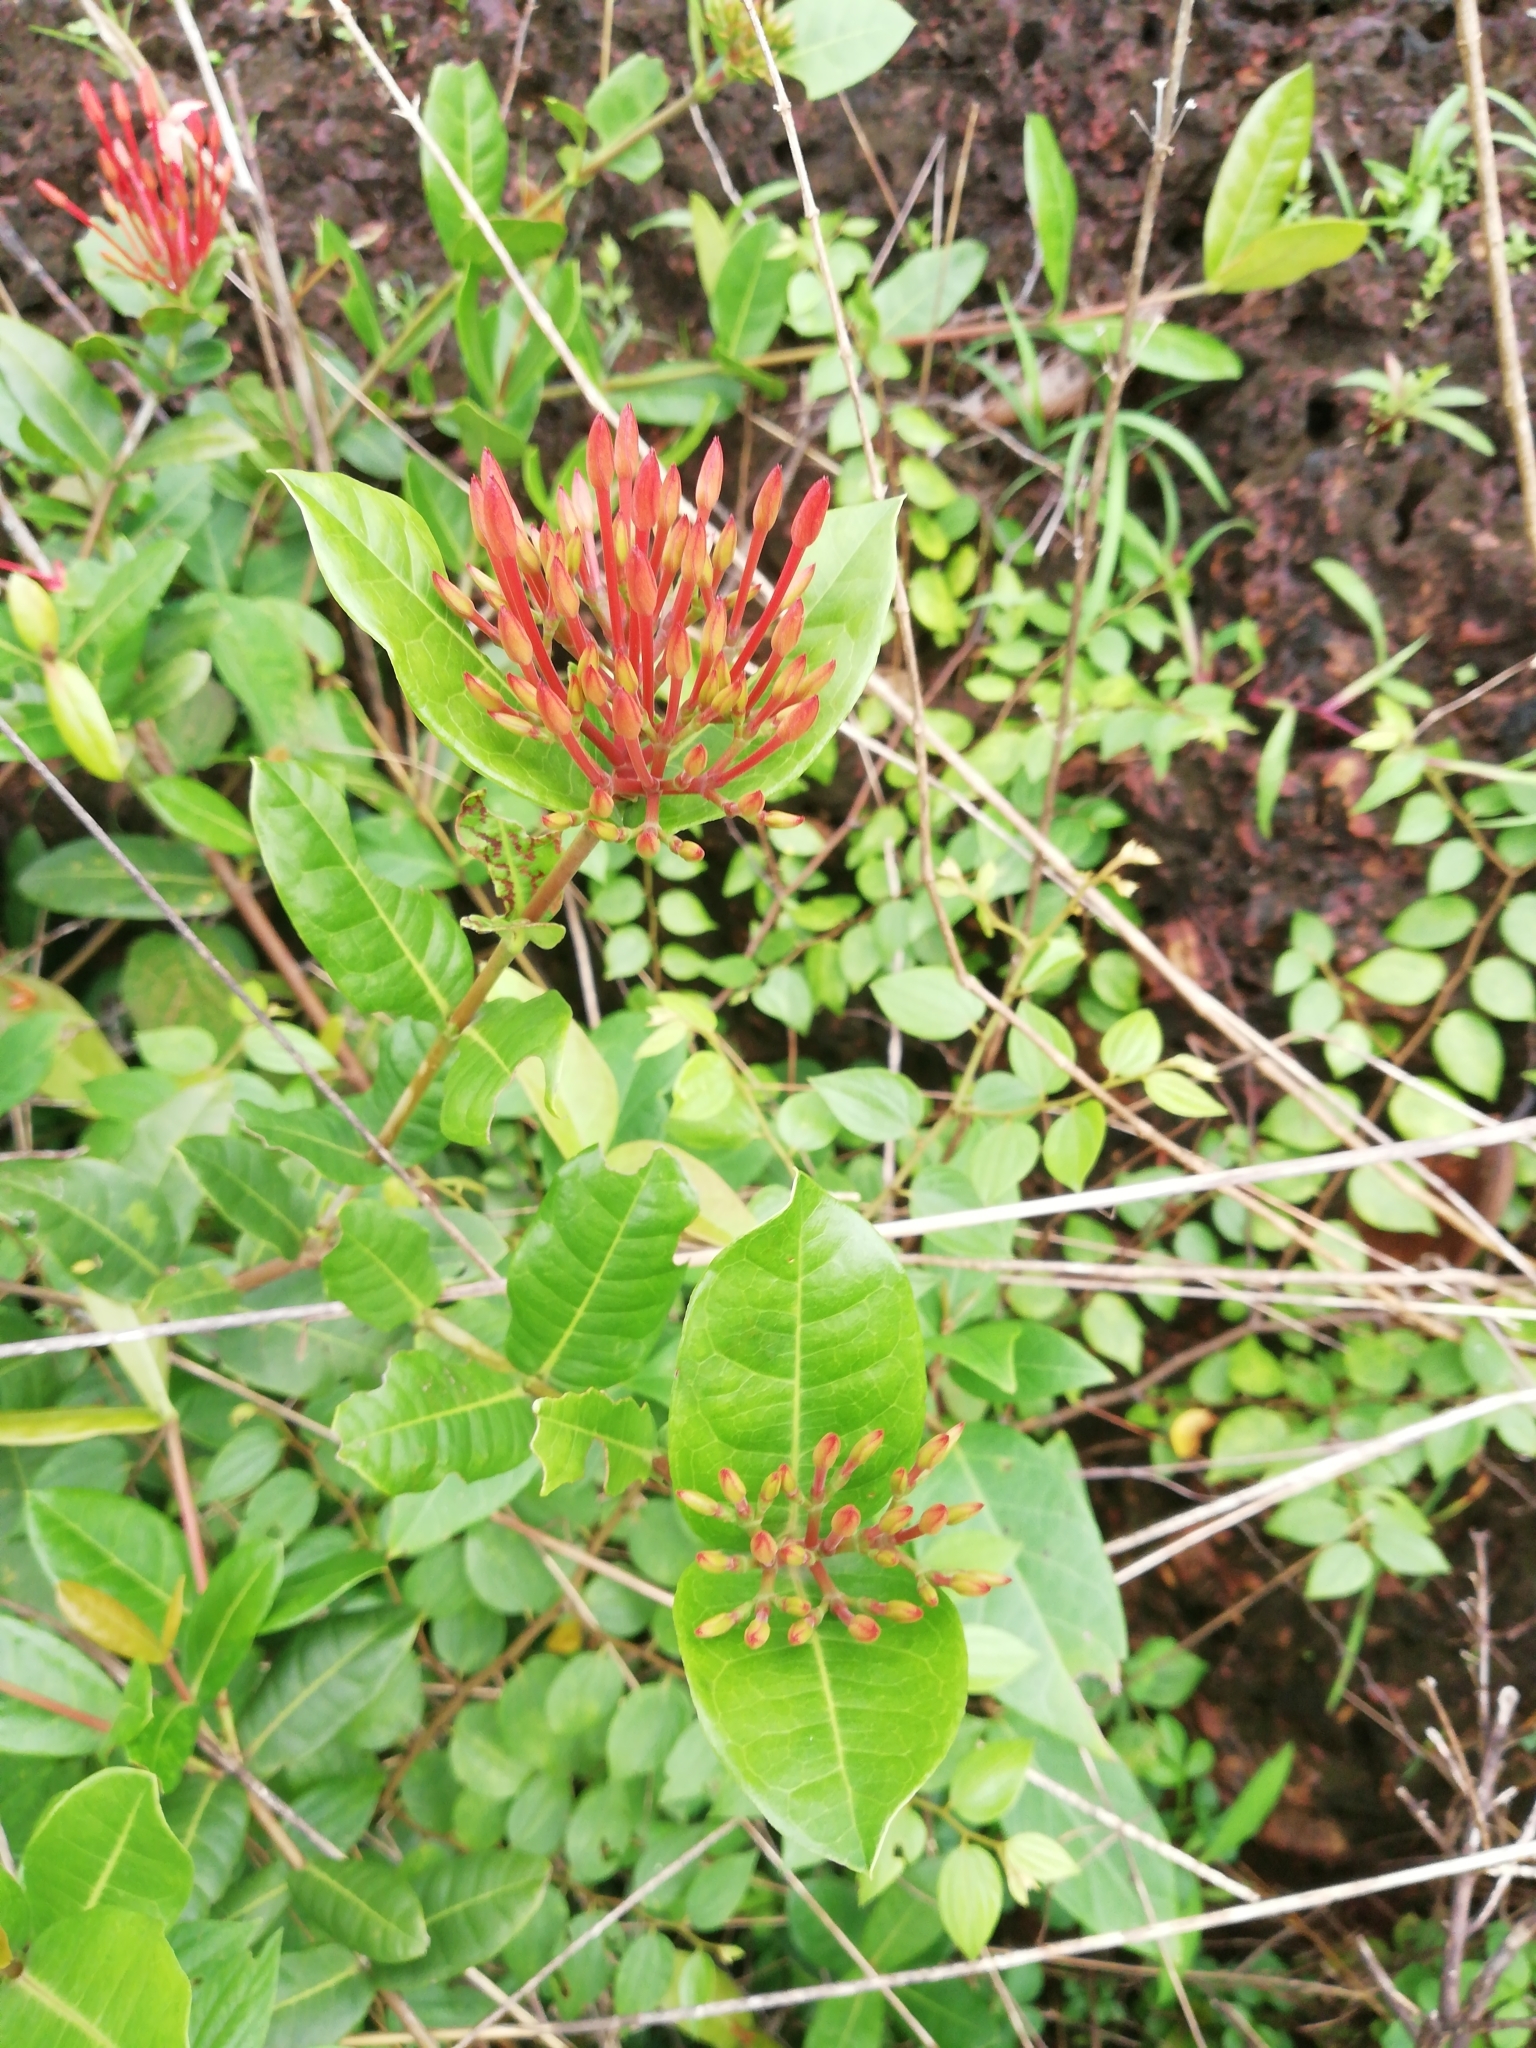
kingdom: Plantae
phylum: Tracheophyta
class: Magnoliopsida
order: Gentianales
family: Rubiaceae
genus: Ixora
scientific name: Ixora coccinea
